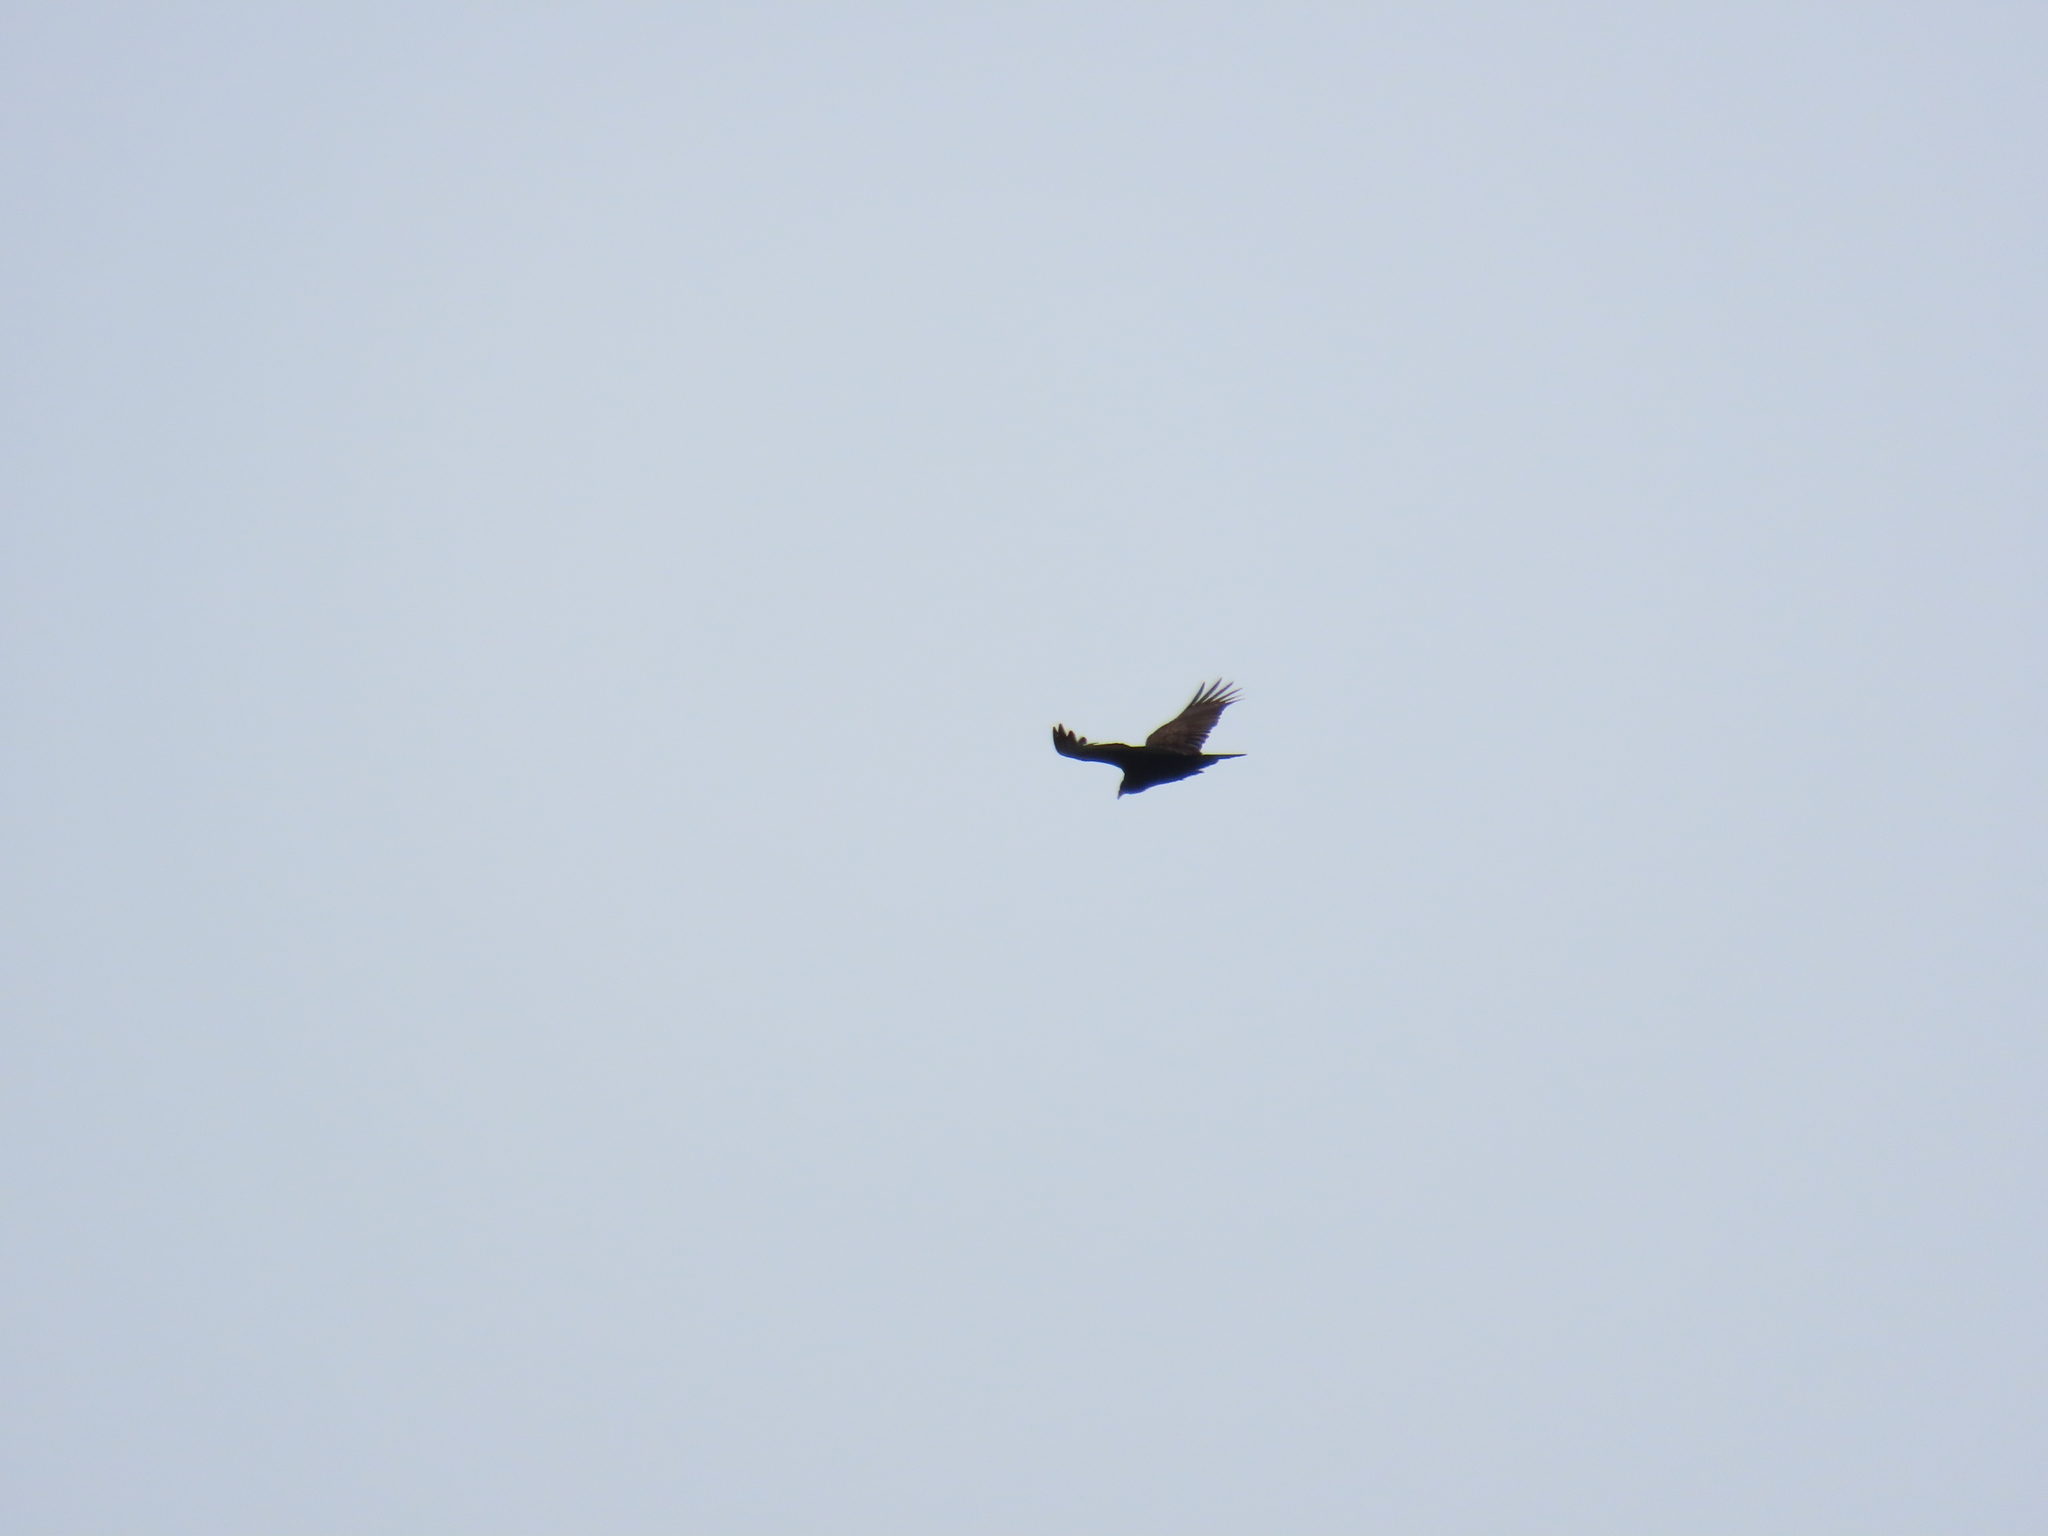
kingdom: Animalia
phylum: Chordata
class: Aves
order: Accipitriformes
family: Cathartidae
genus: Cathartes
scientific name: Cathartes aura
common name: Turkey vulture
